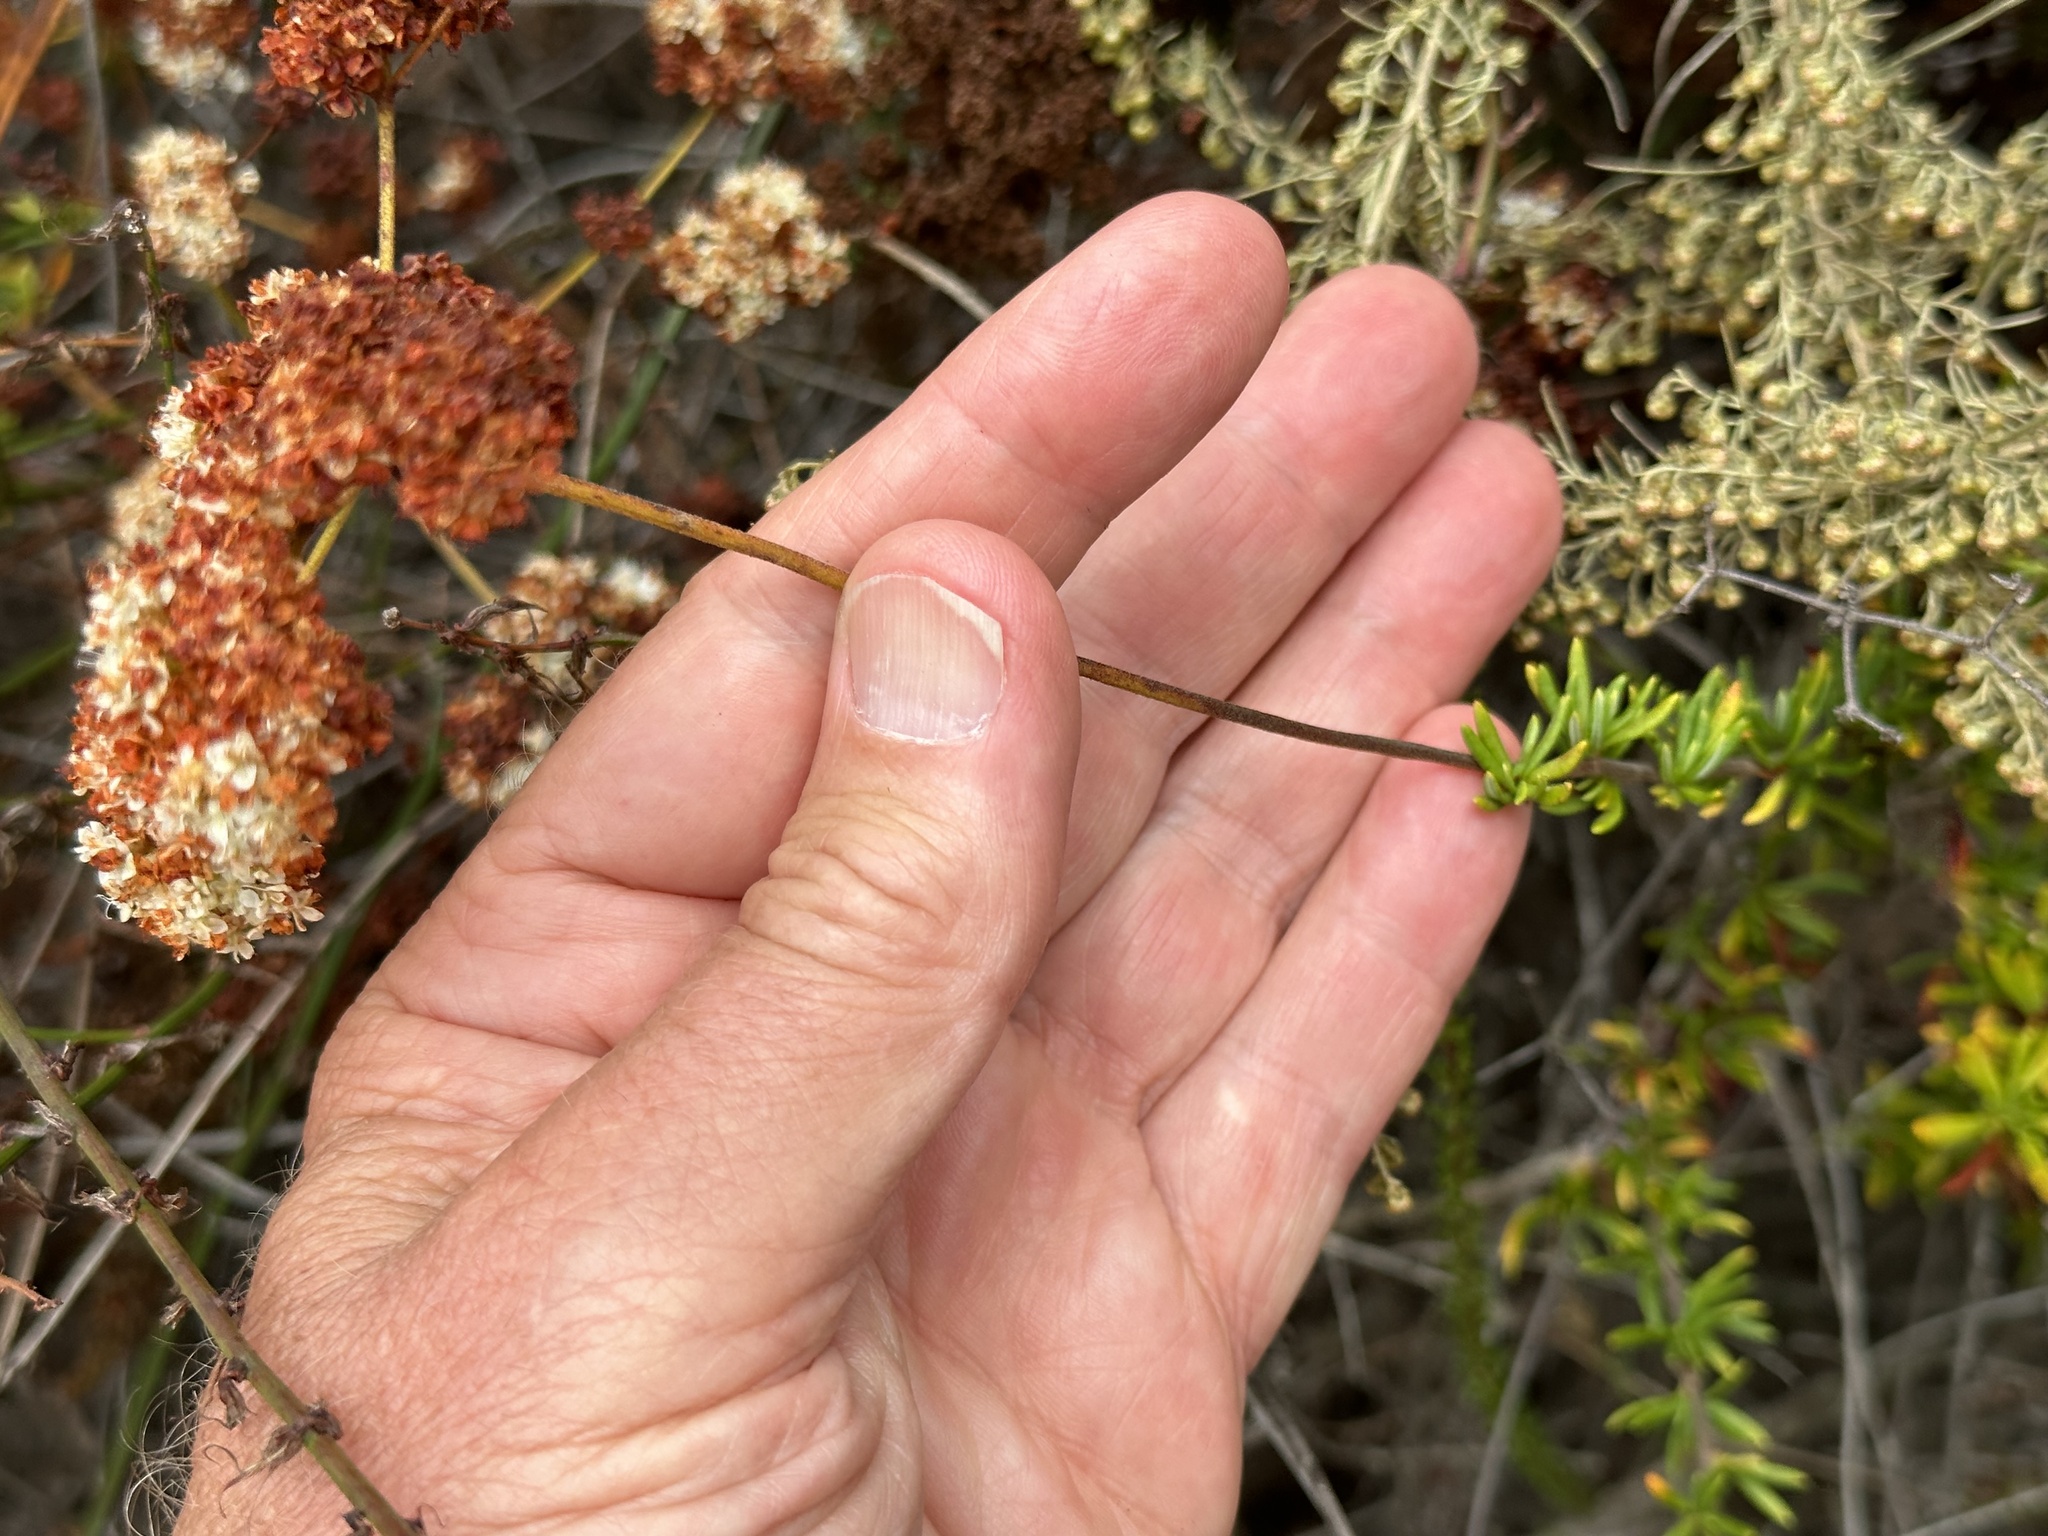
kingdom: Plantae
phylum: Tracheophyta
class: Magnoliopsida
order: Caryophyllales
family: Polygonaceae
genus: Eriogonum
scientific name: Eriogonum fasciculatum
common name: California wild buckwheat
